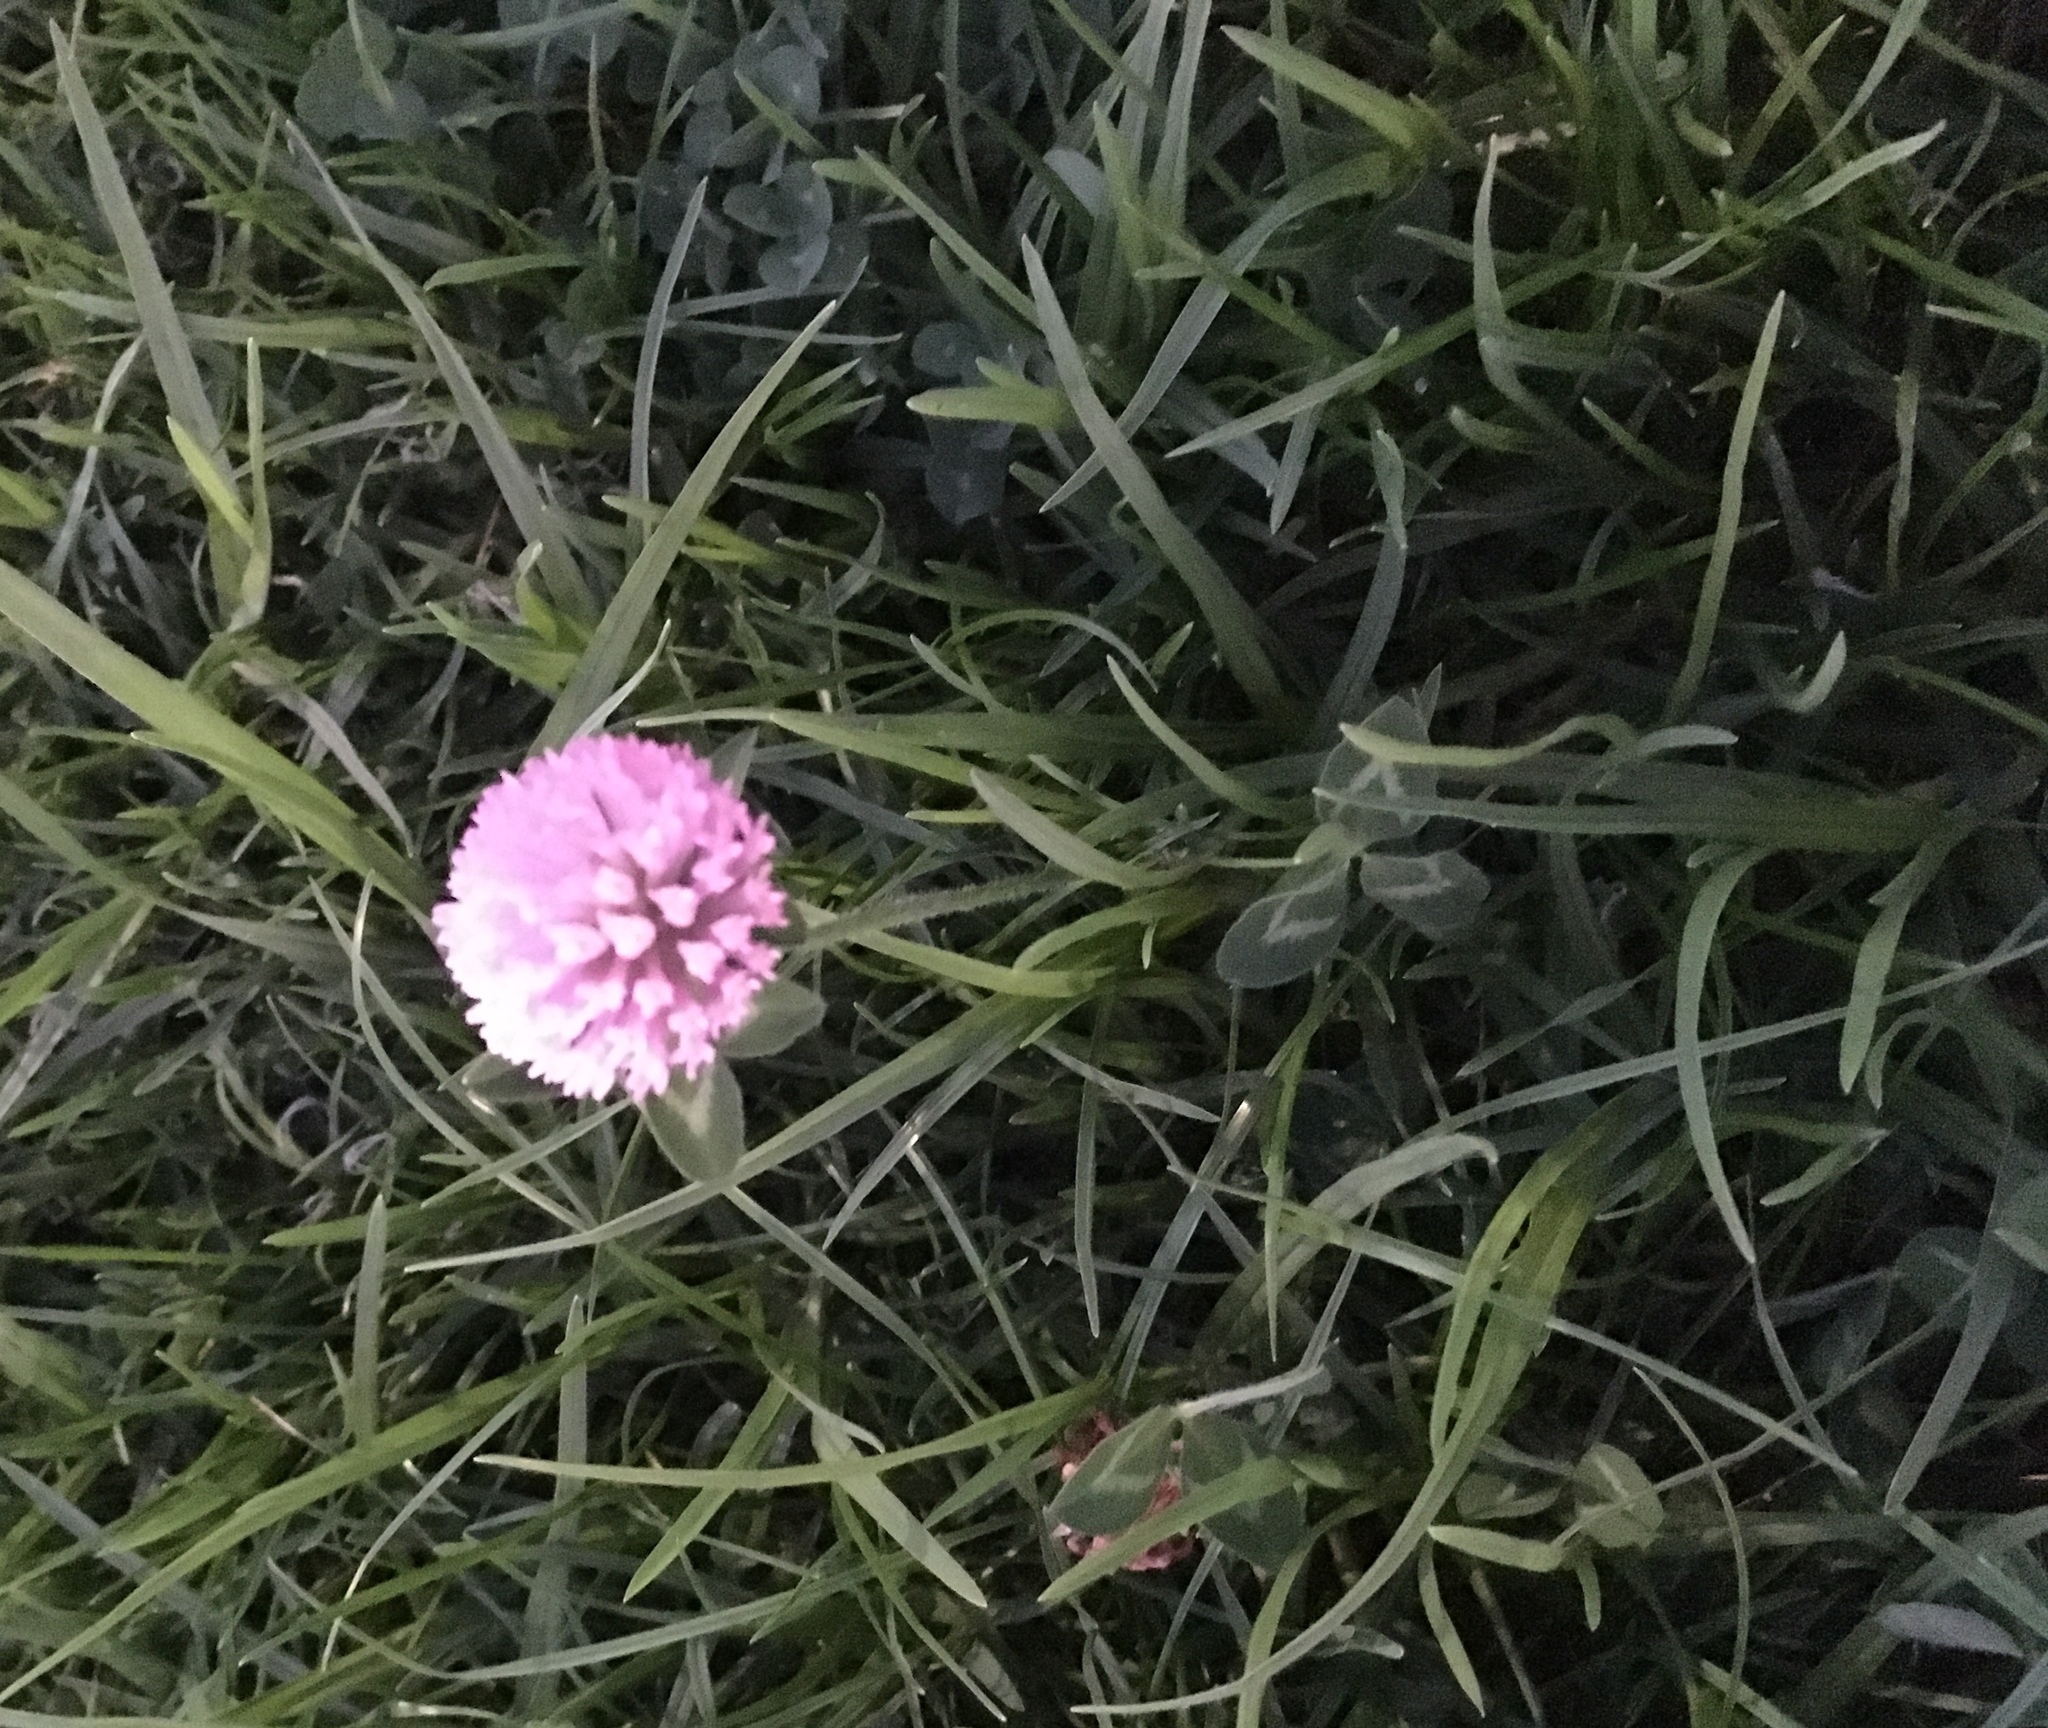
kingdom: Plantae
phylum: Tracheophyta
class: Magnoliopsida
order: Fabales
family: Fabaceae
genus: Trifolium
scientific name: Trifolium pratense
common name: Red clover
